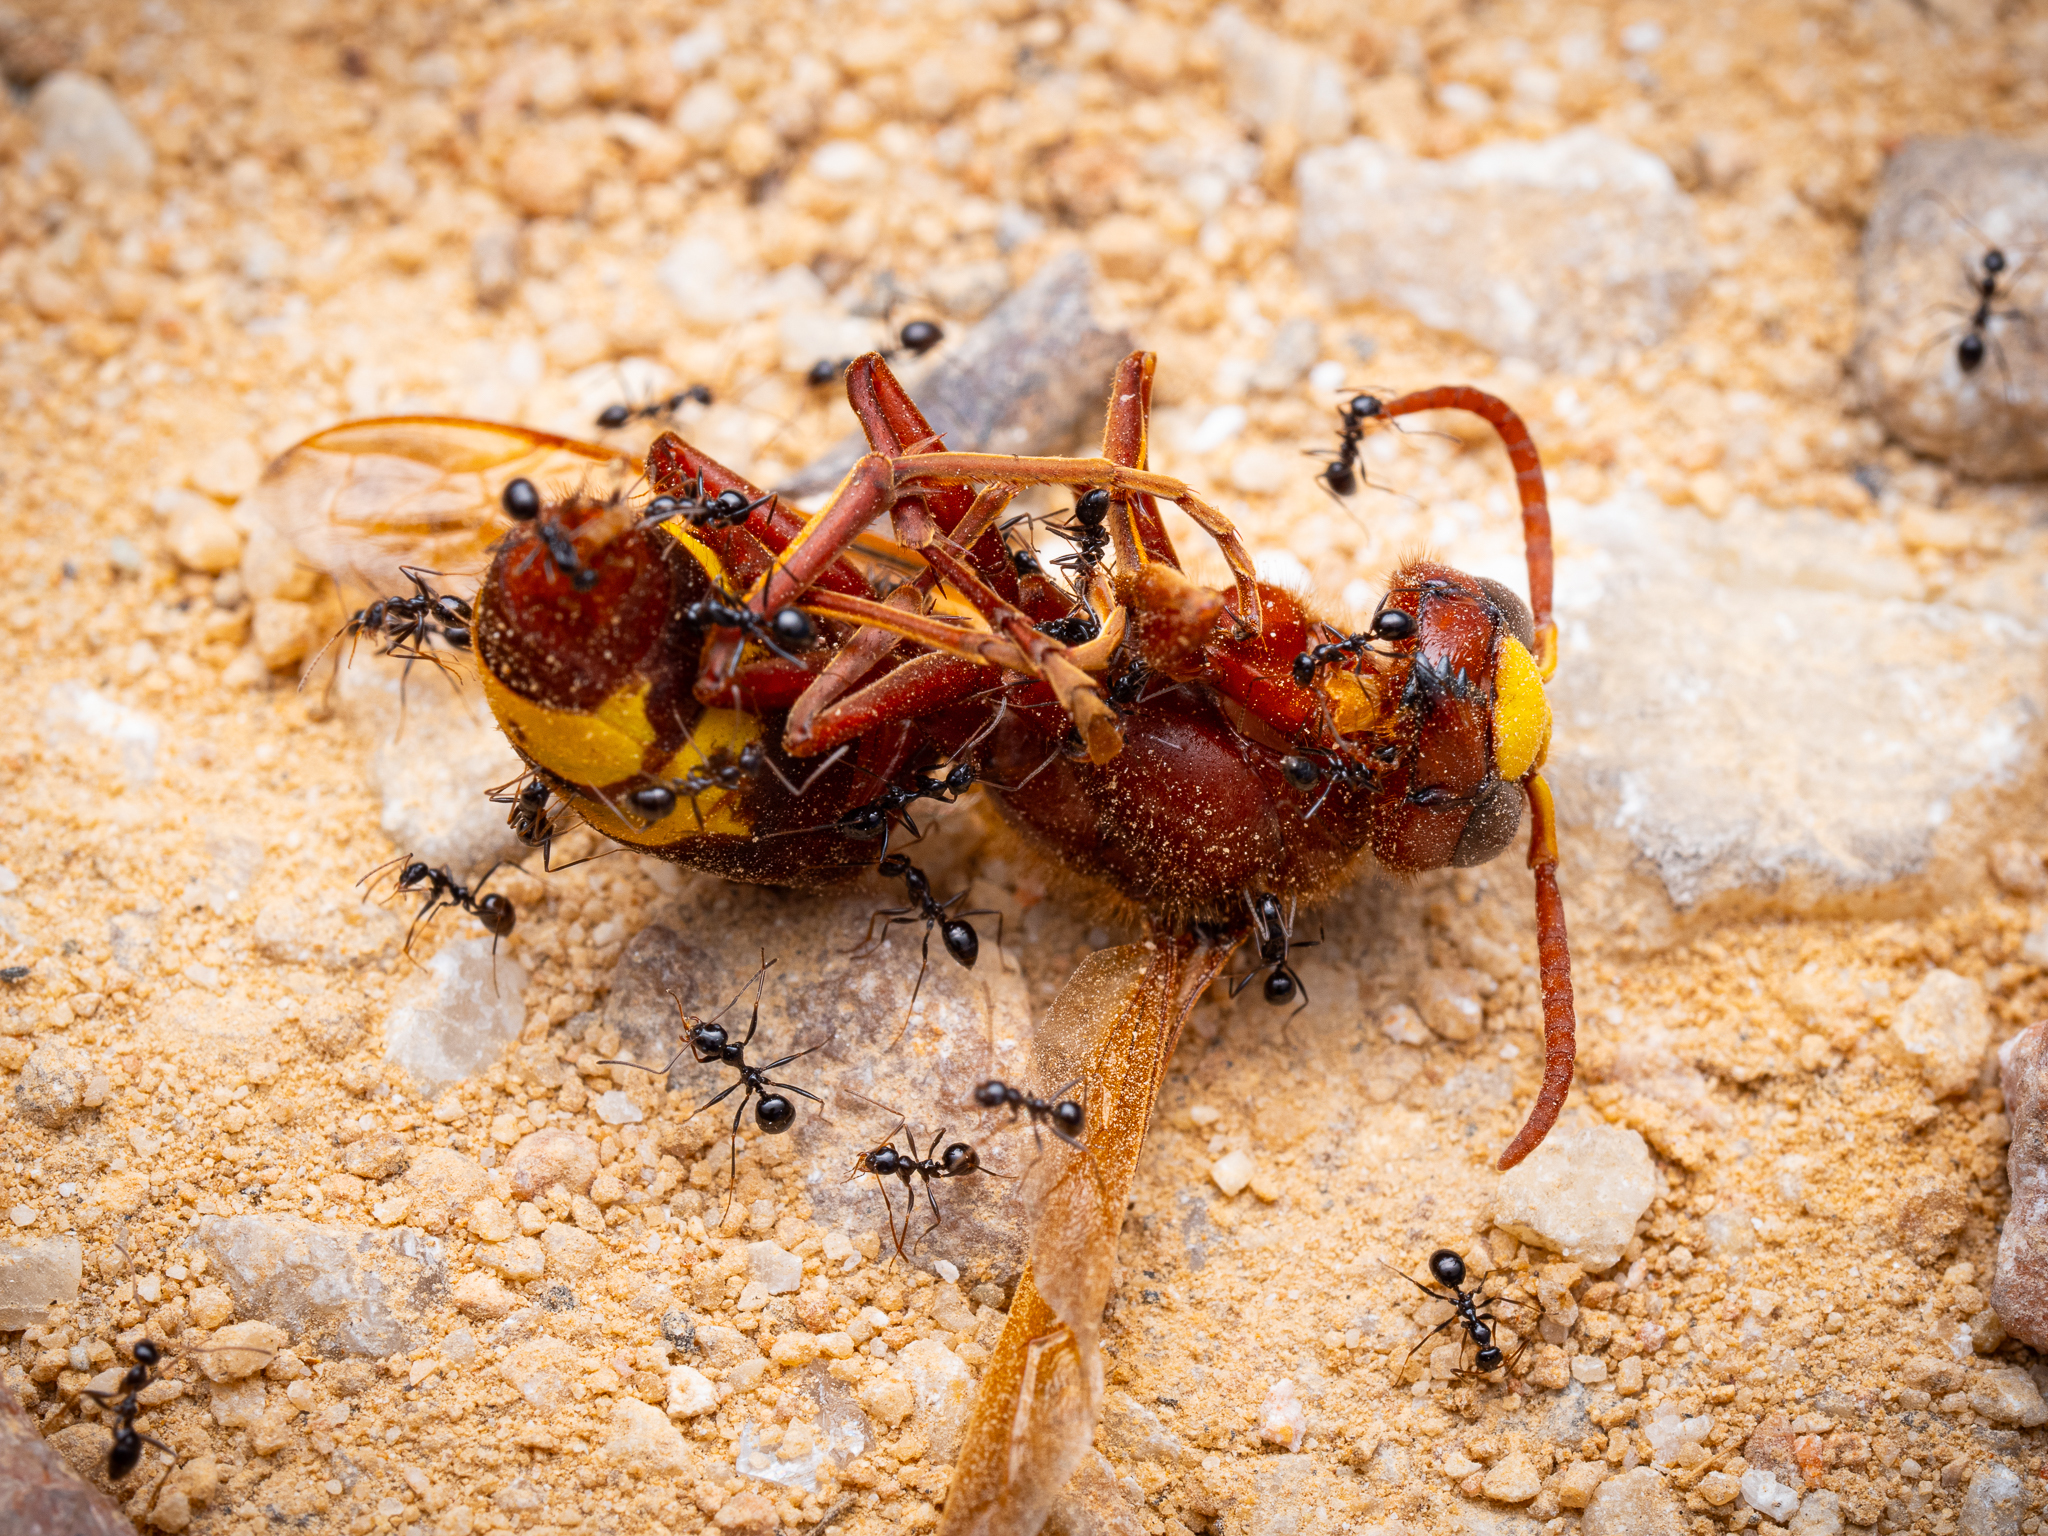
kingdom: Animalia
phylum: Arthropoda
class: Insecta
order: Hymenoptera
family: Formicidae
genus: Lepisiota
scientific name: Lepisiota nigra
